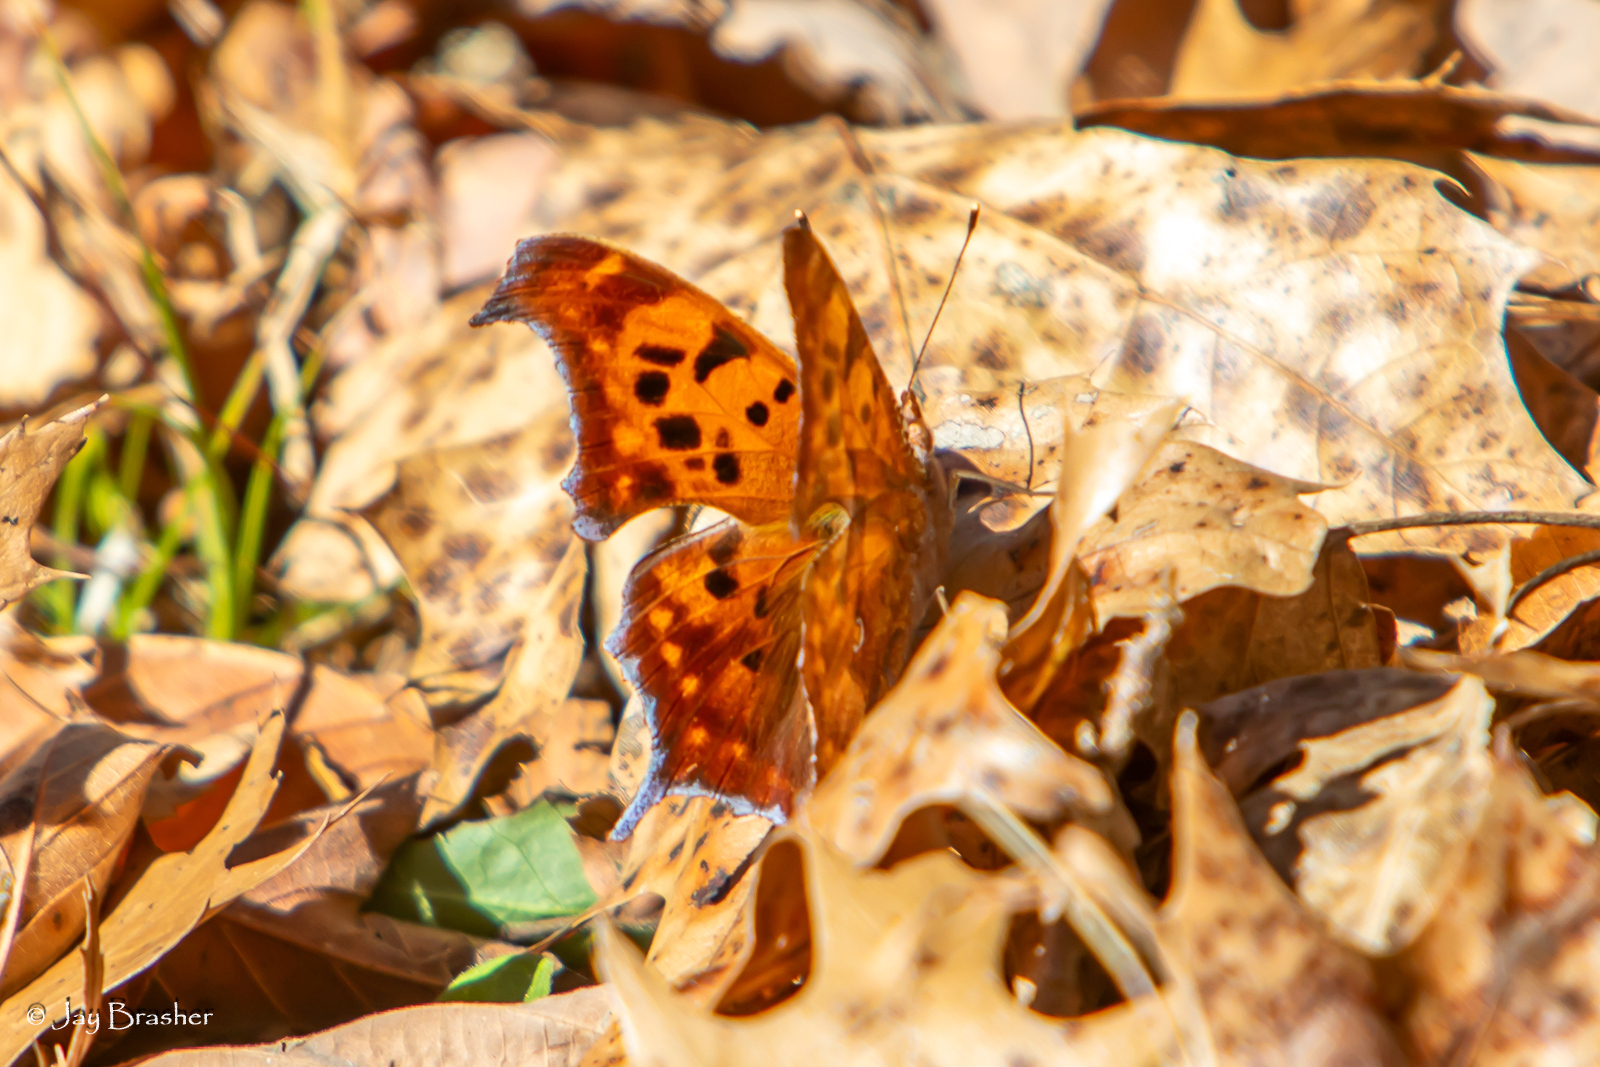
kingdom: Animalia
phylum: Arthropoda
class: Insecta
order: Lepidoptera
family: Nymphalidae
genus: Polygonia
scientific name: Polygonia interrogationis
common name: Question mark
